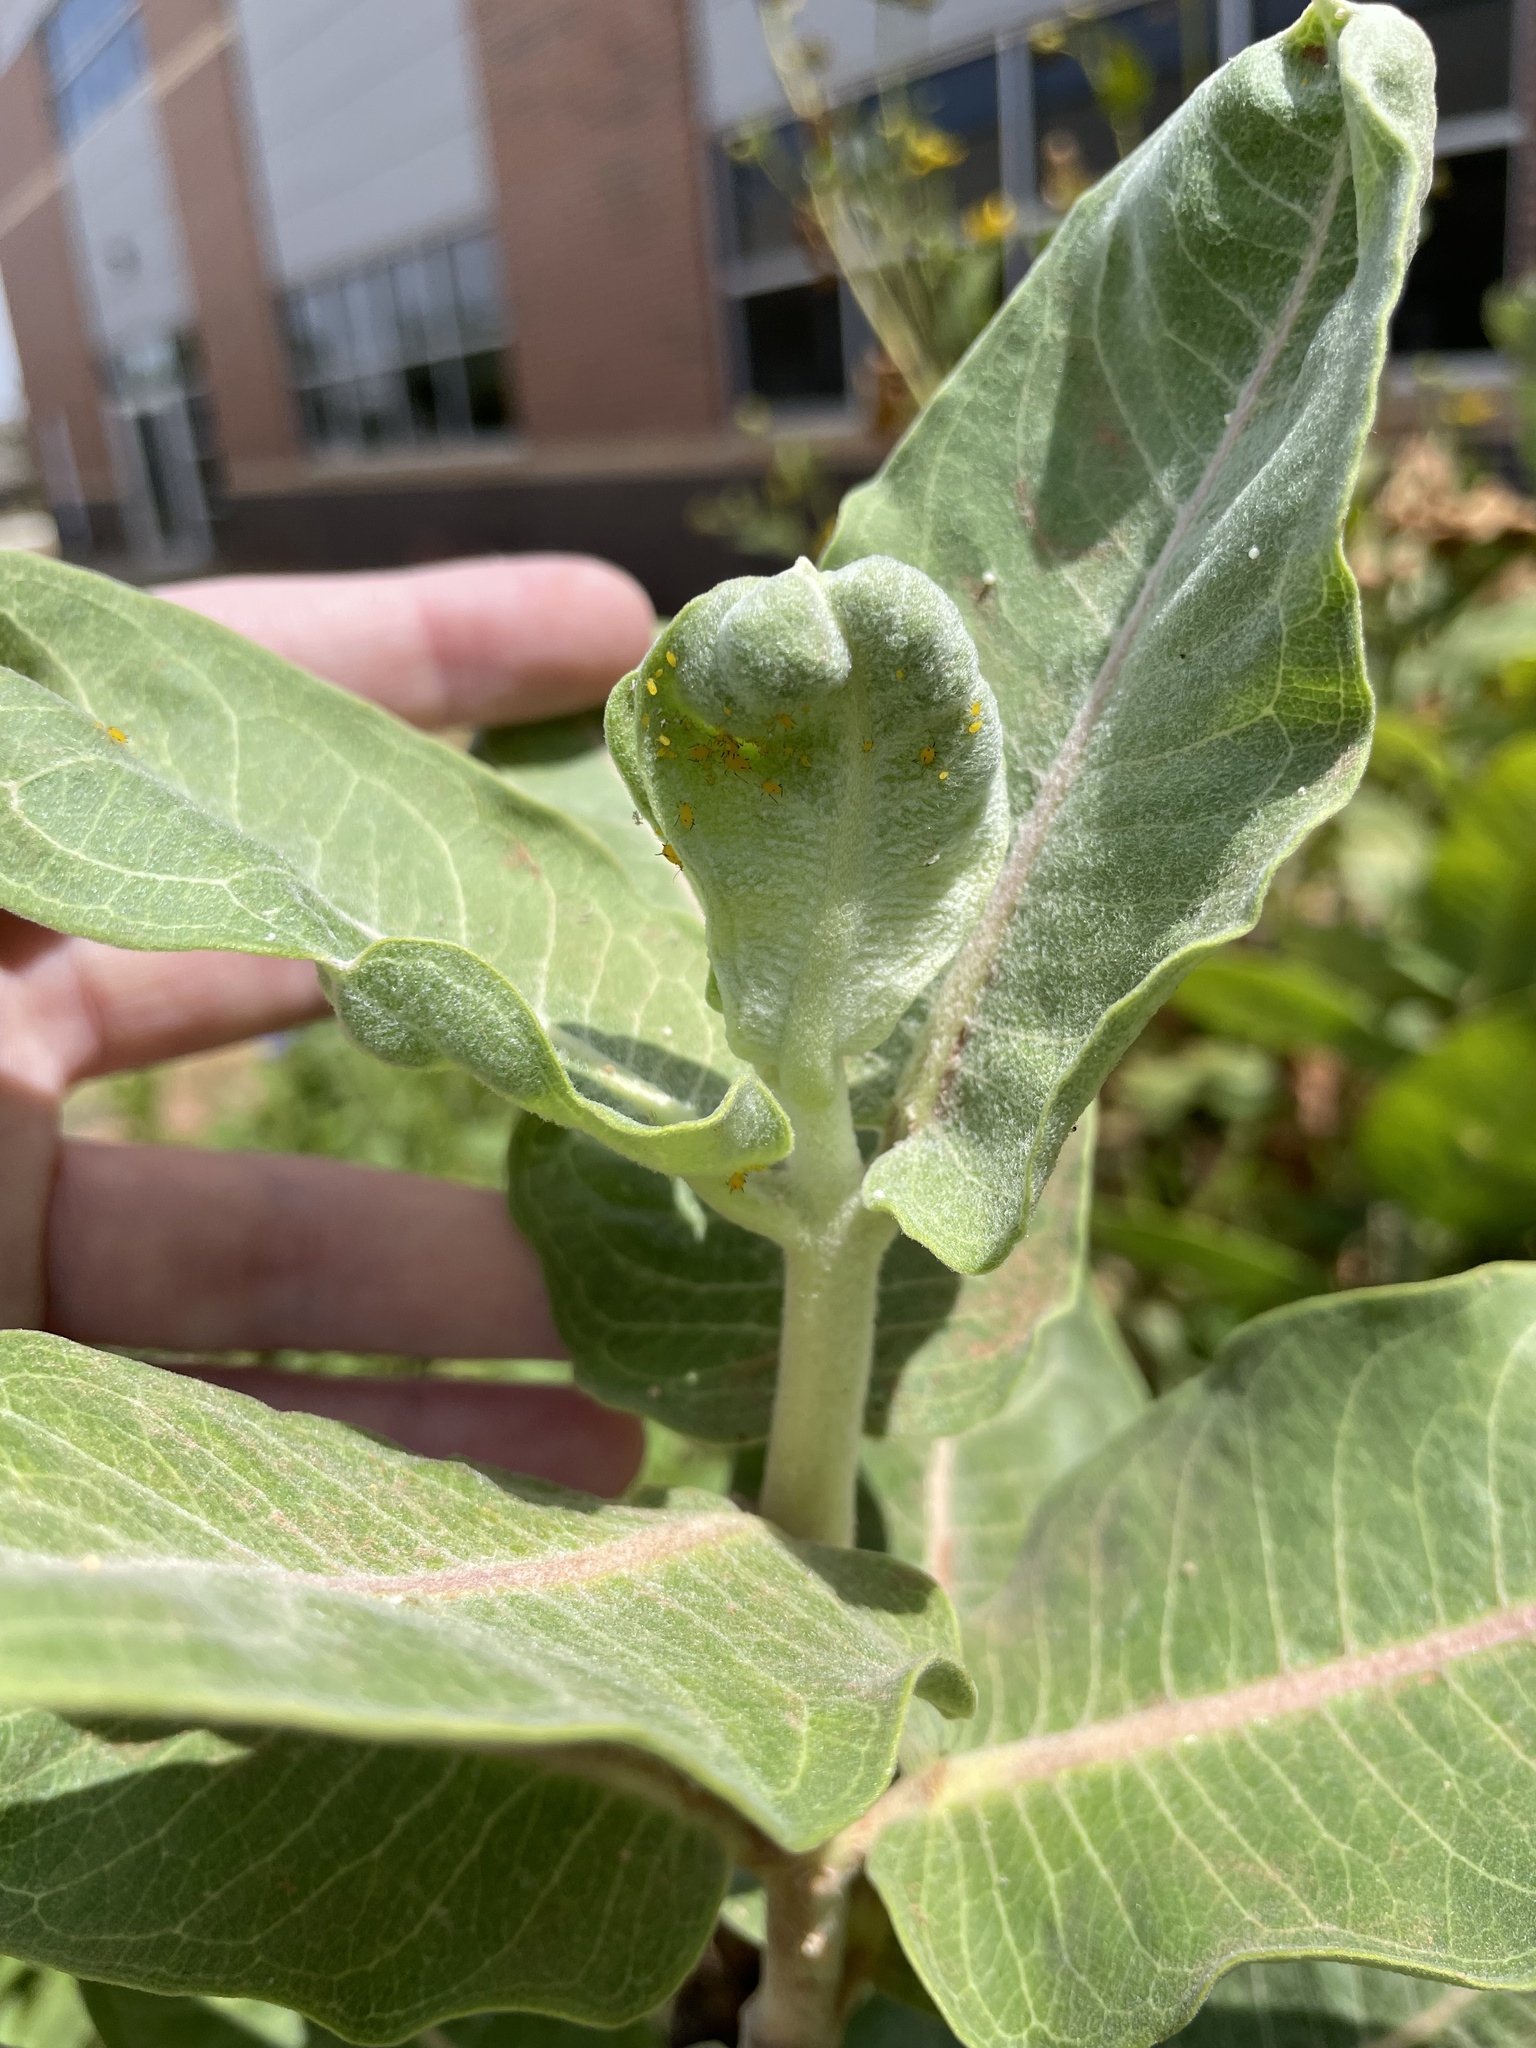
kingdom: Animalia
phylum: Arthropoda
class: Insecta
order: Hemiptera
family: Aphididae
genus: Aphis
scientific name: Aphis nerii
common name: Oleander aphid
